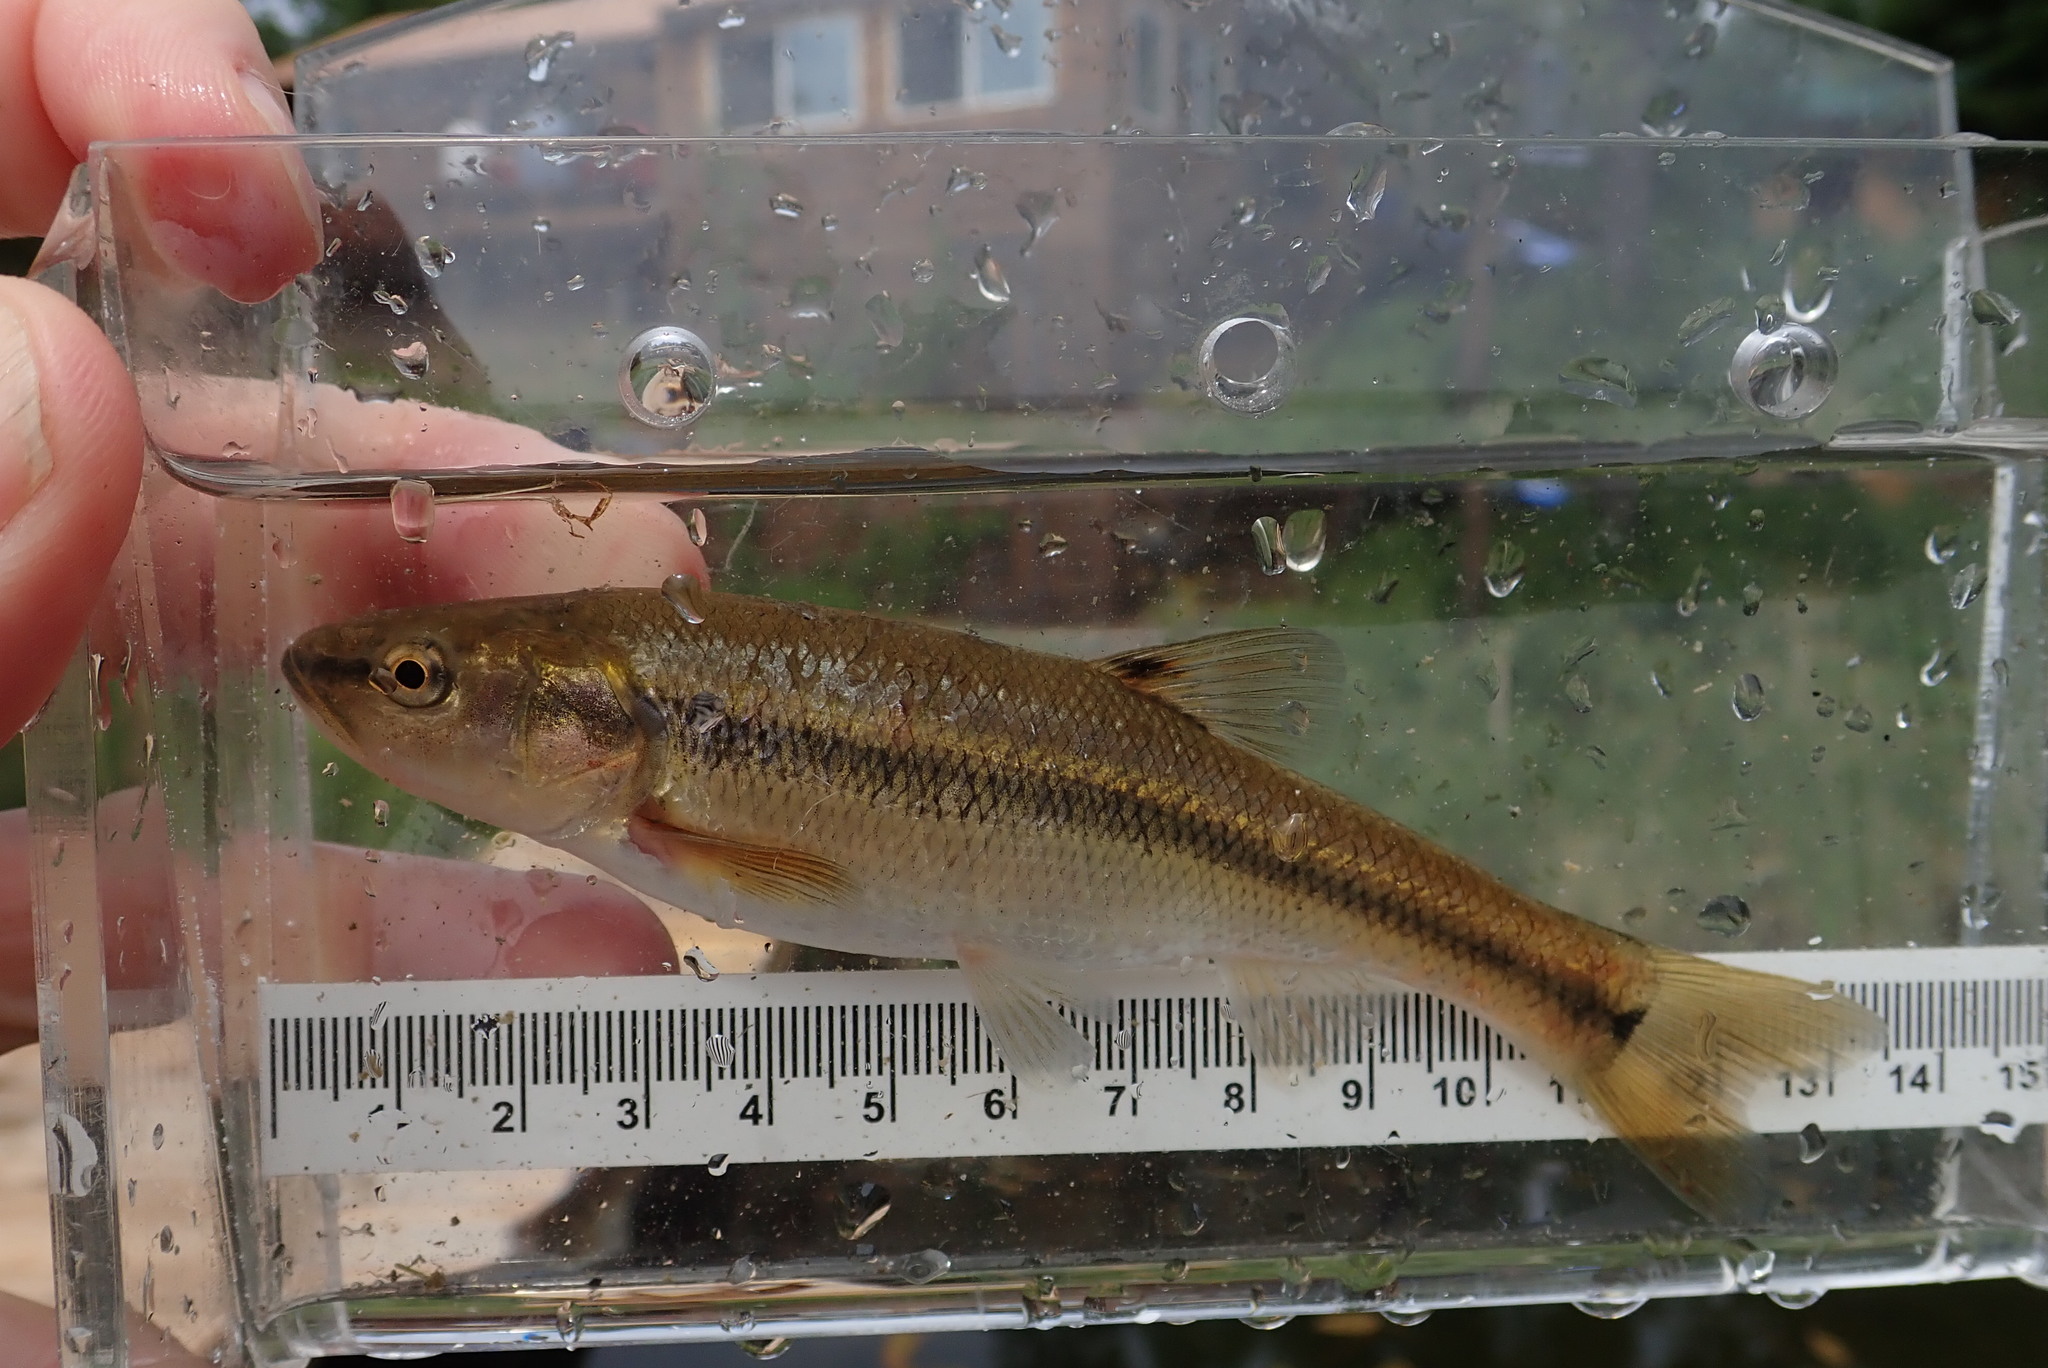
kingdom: Animalia
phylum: Chordata
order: Cypriniformes
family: Cyprinidae
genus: Semotilus
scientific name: Semotilus atromaculatus
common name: Creek chub
